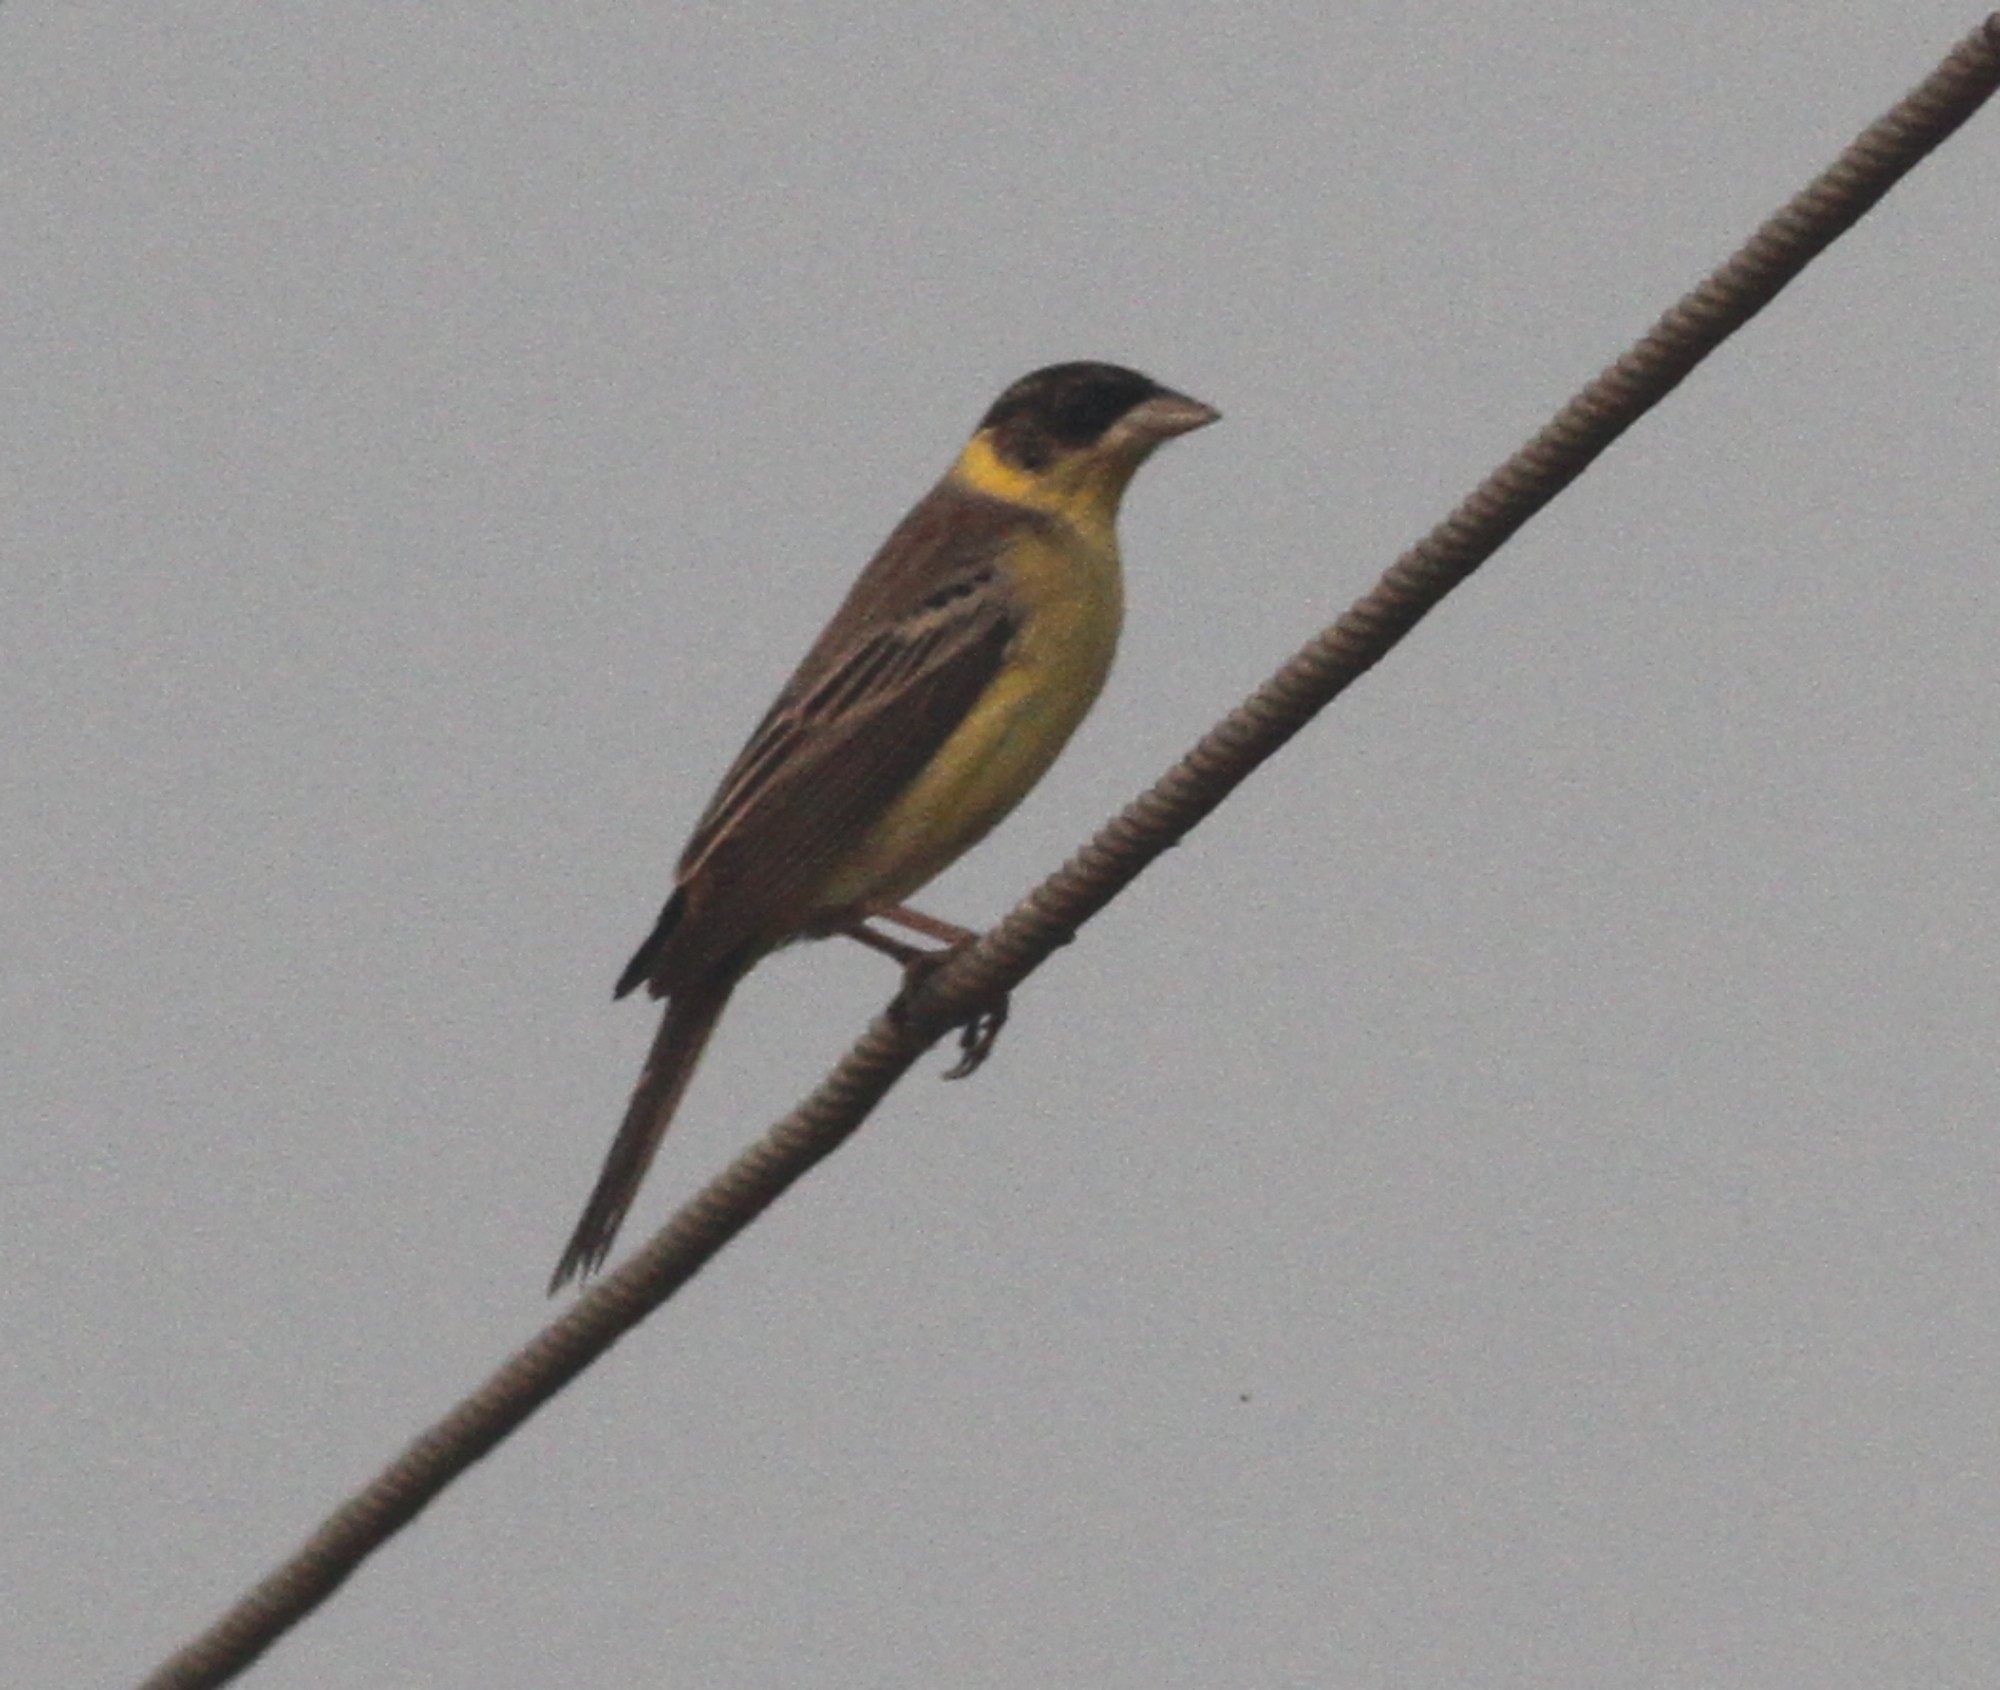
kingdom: Animalia
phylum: Chordata
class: Aves
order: Passeriformes
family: Emberizidae
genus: Emberiza
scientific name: Emberiza melanocephala
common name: Black-headed bunting
